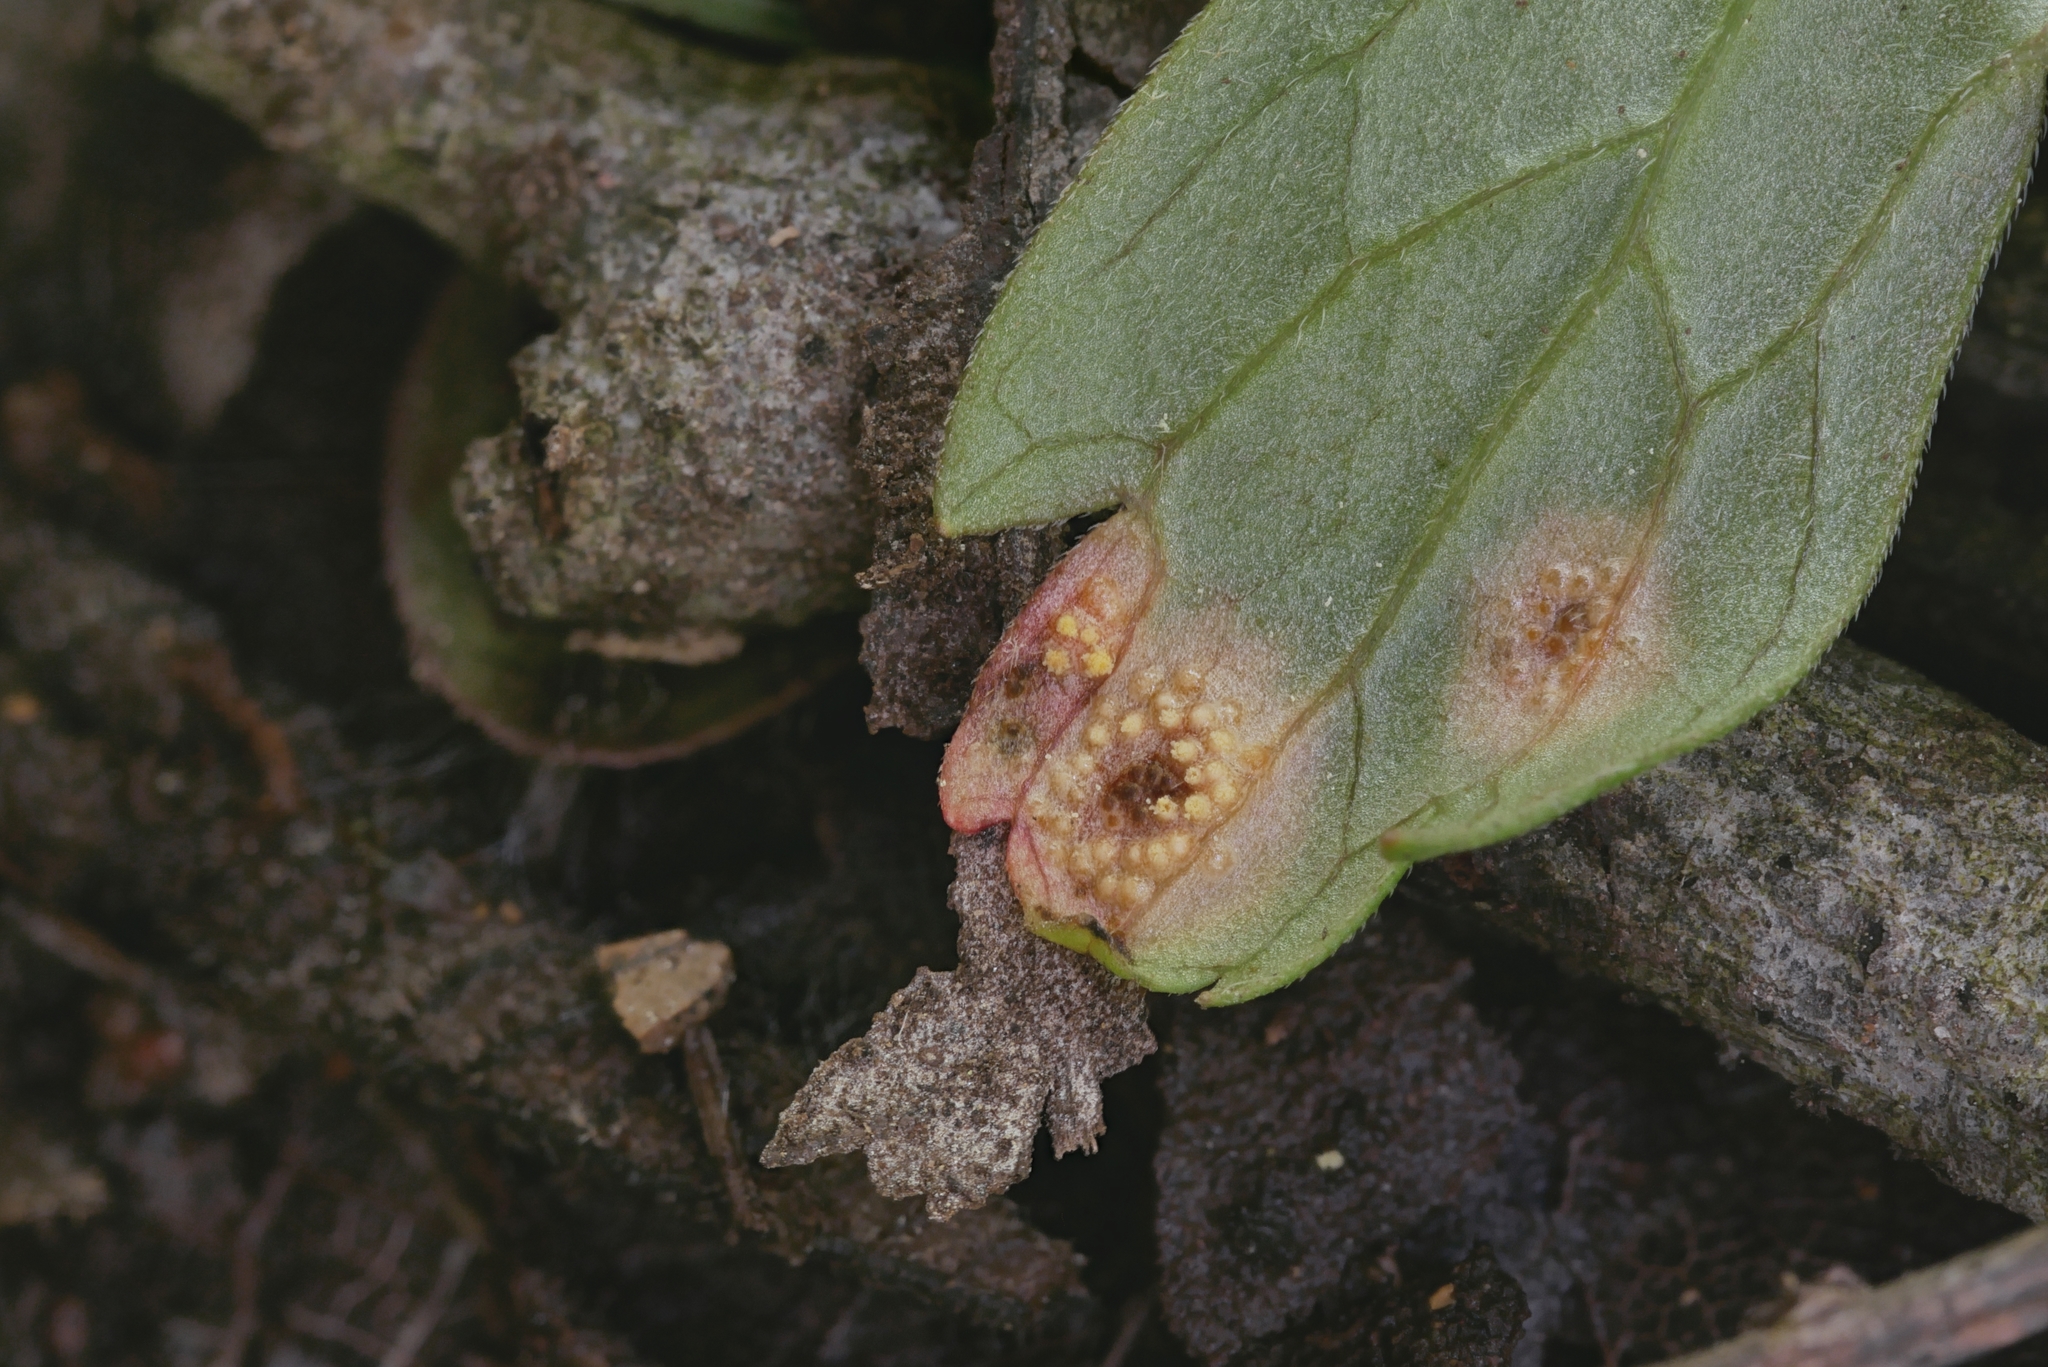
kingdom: Fungi
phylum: Basidiomycota
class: Pucciniomycetes
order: Pucciniales
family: Pucciniaceae
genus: Puccinia
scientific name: Puccinia polygoni-amphibii
